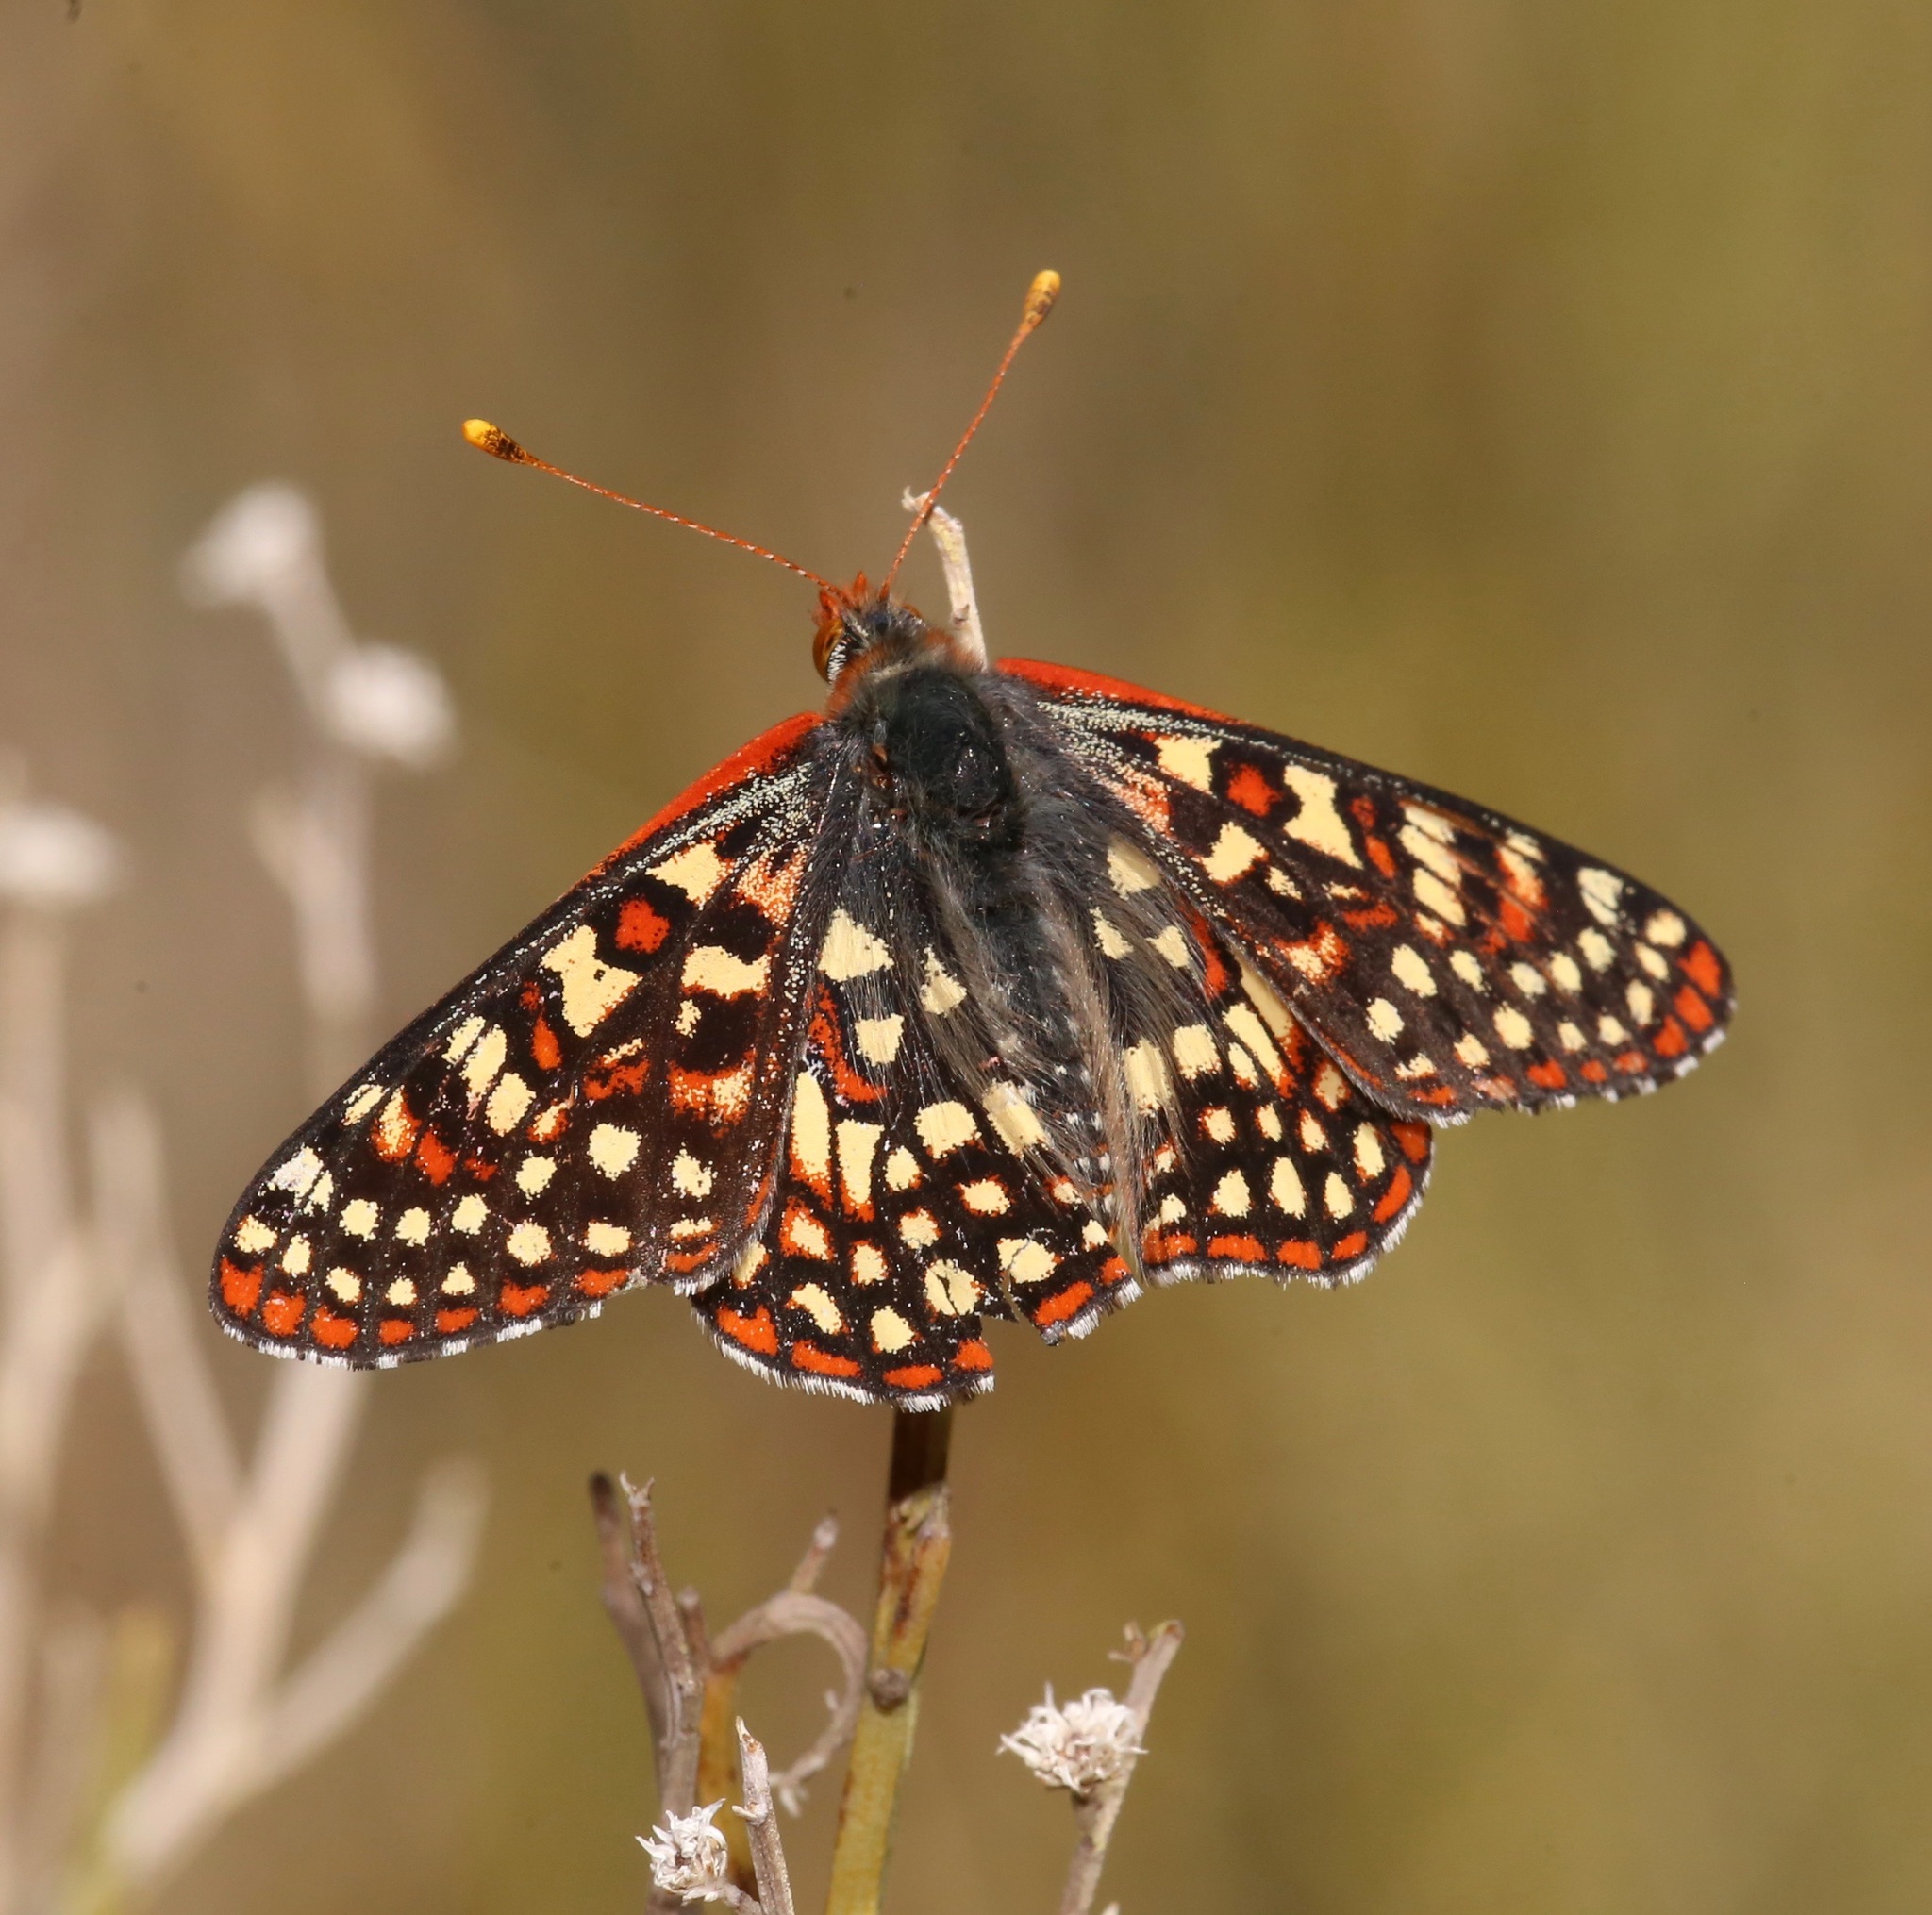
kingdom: Animalia
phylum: Arthropoda
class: Insecta
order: Lepidoptera
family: Nymphalidae
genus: Occidryas
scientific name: Occidryas chalcedona
